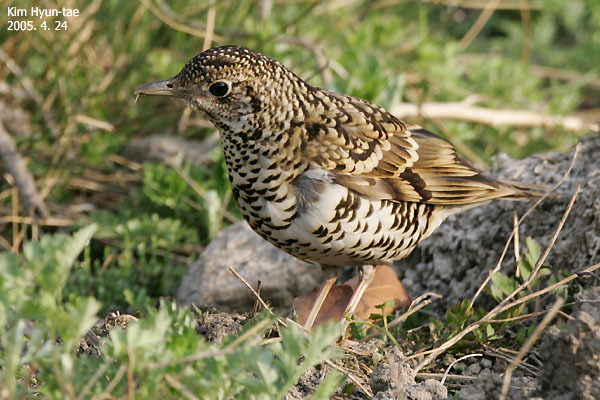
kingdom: Animalia
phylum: Chordata
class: Aves
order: Passeriformes
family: Turdidae
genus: Zoothera
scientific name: Zoothera aurea
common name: White's thrush
